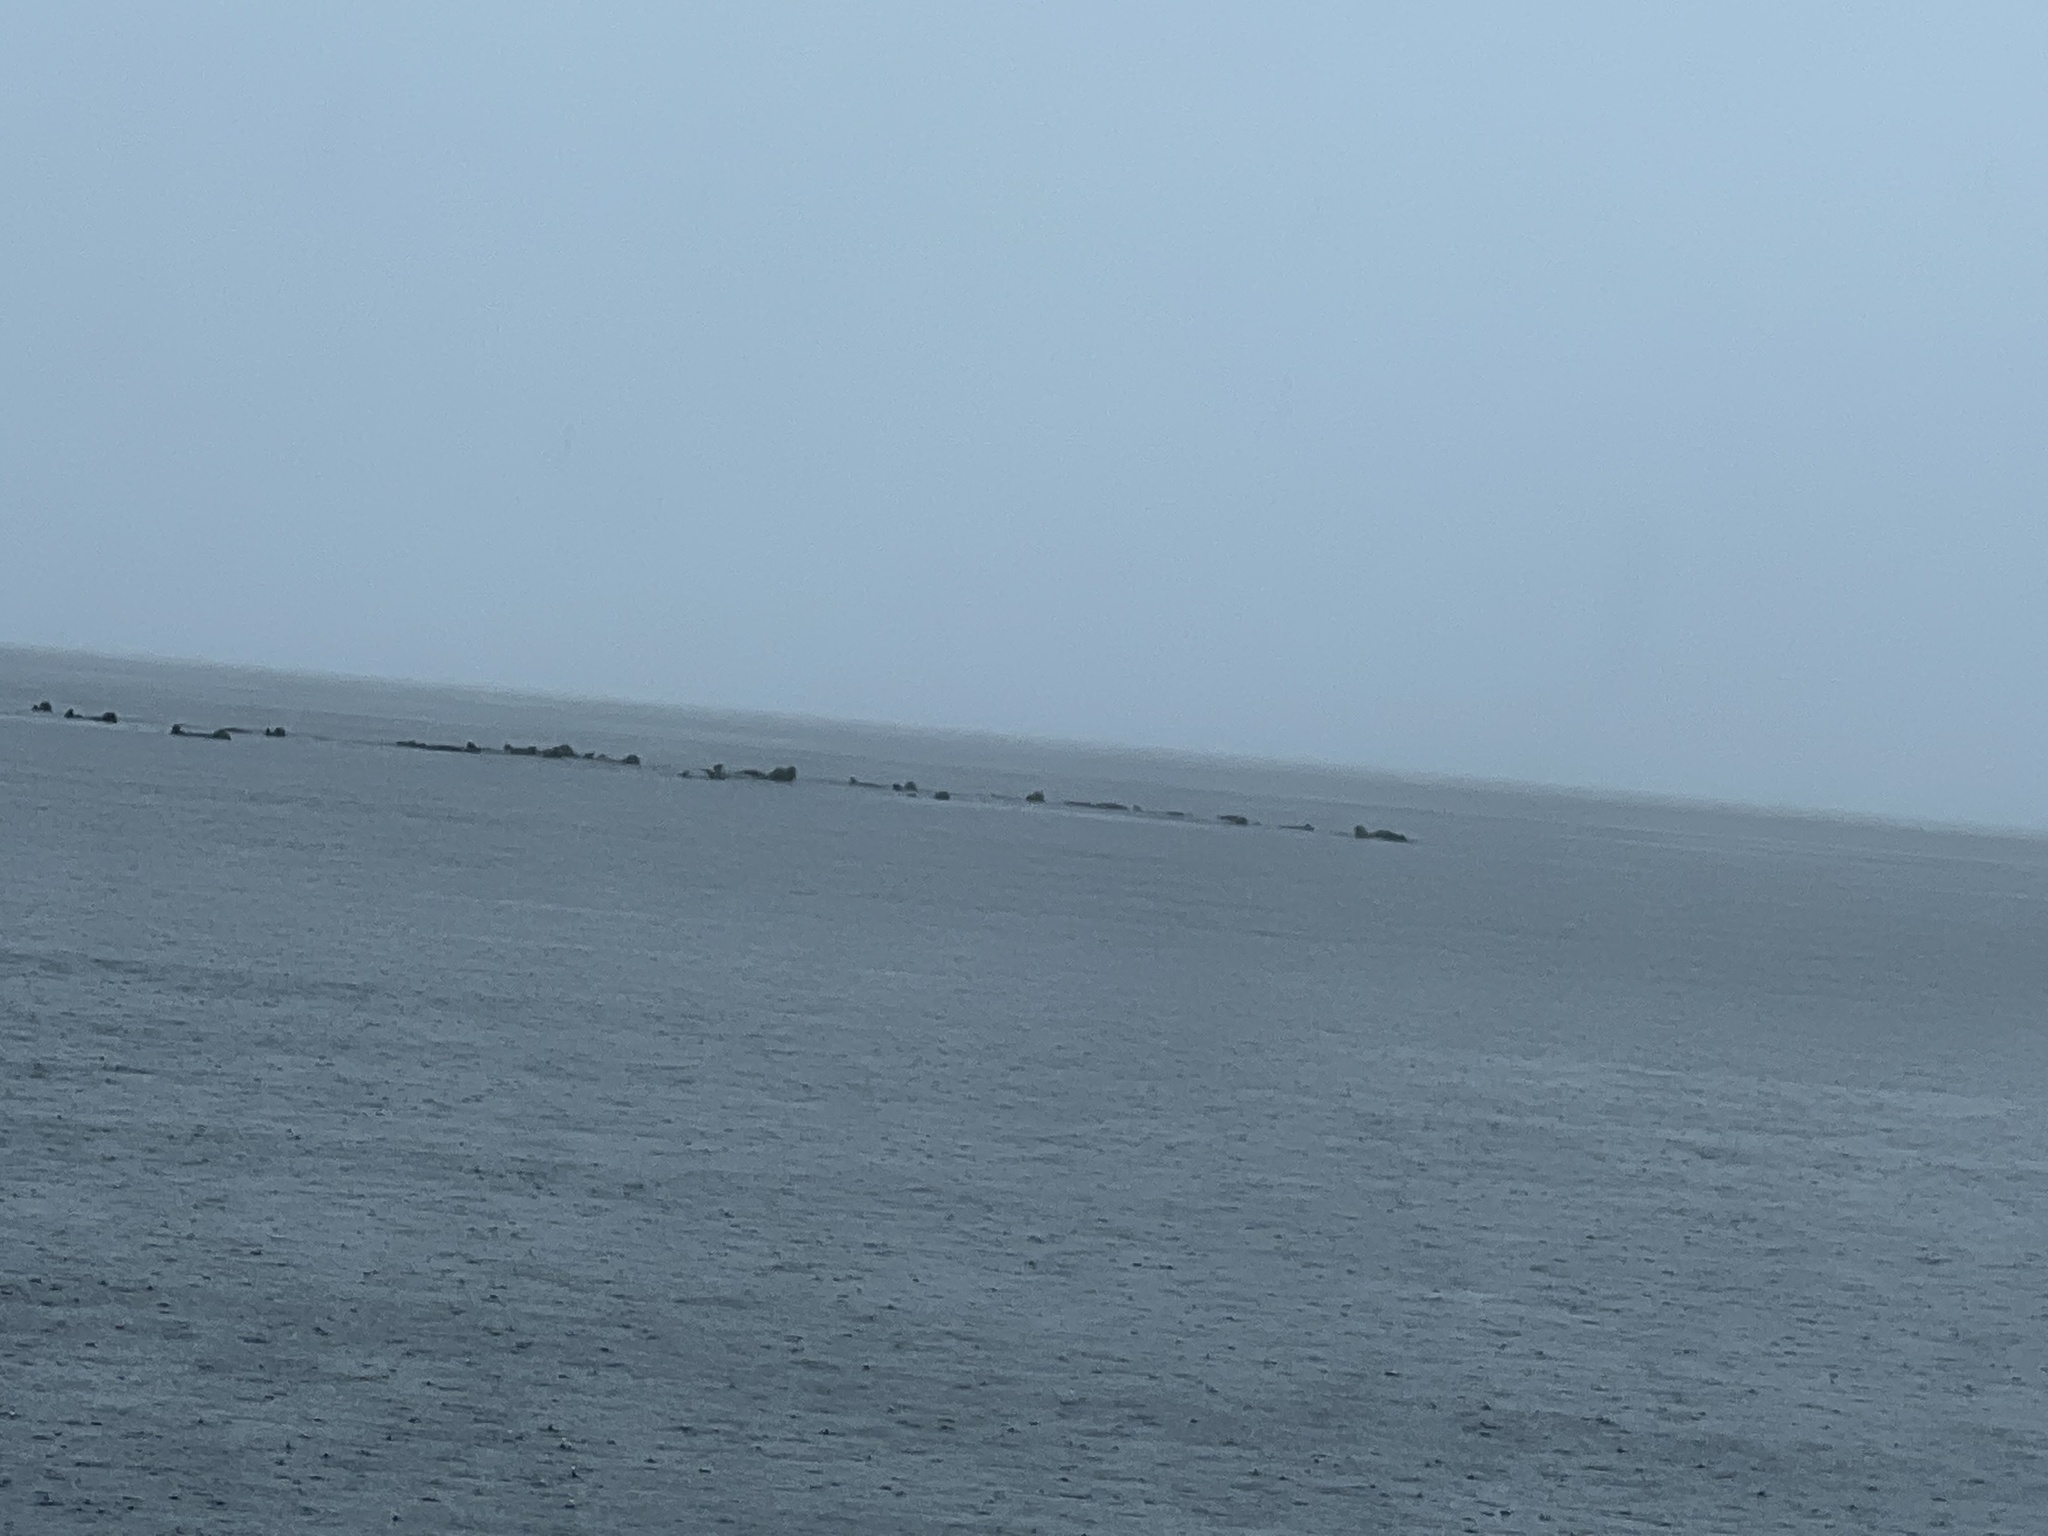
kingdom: Animalia
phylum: Chordata
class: Mammalia
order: Carnivora
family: Mustelidae
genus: Enhydra
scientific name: Enhydra lutris
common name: Sea otter
